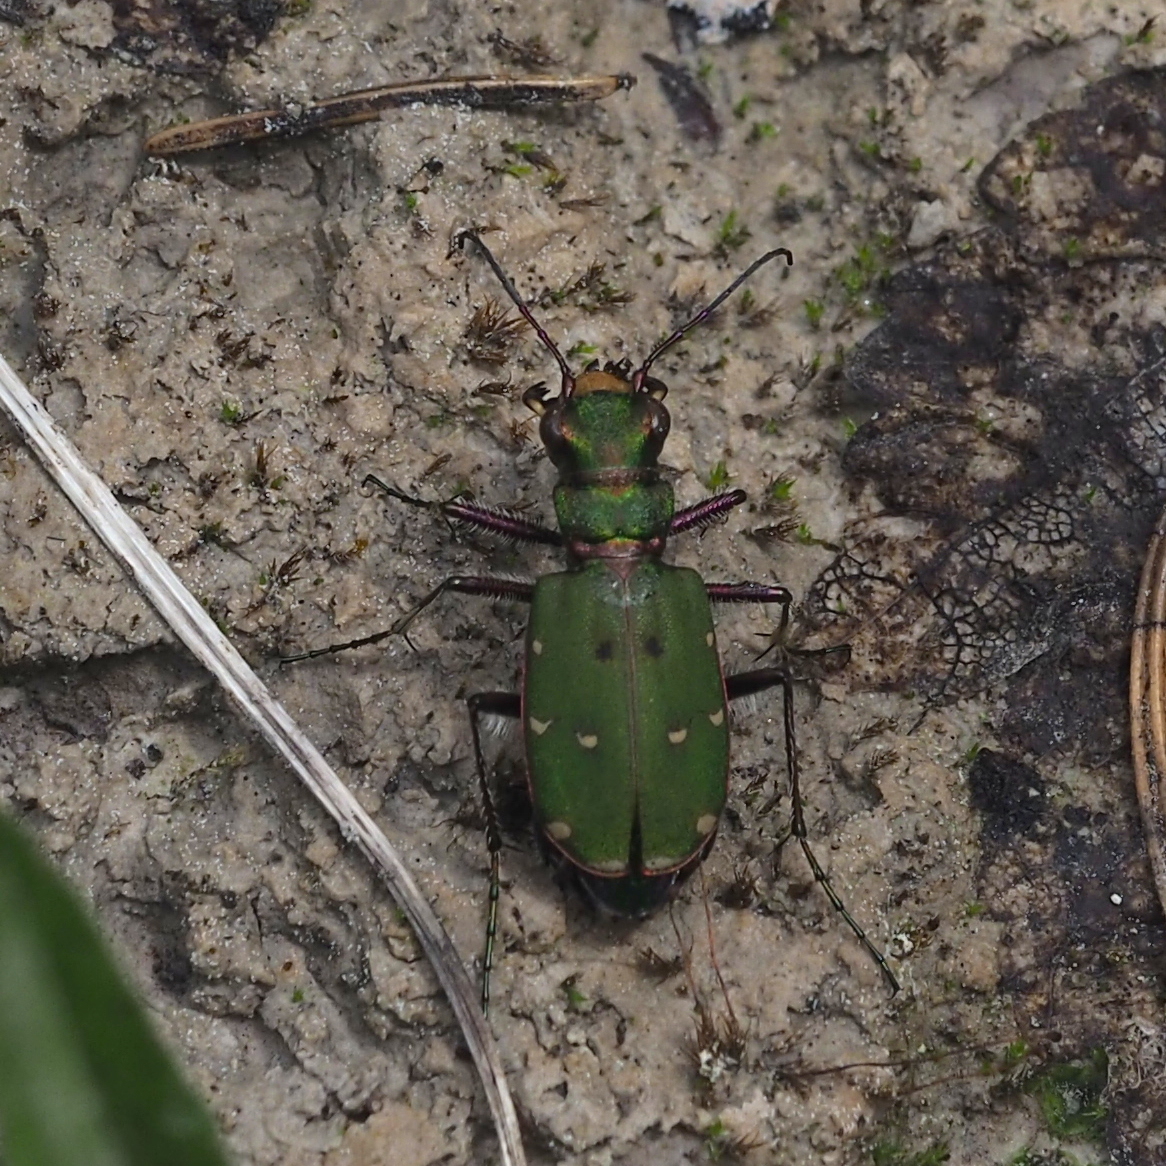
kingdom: Animalia
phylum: Arthropoda
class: Insecta
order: Coleoptera
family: Carabidae
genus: Cicindela
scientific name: Cicindela campestris
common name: Common tiger beetle
